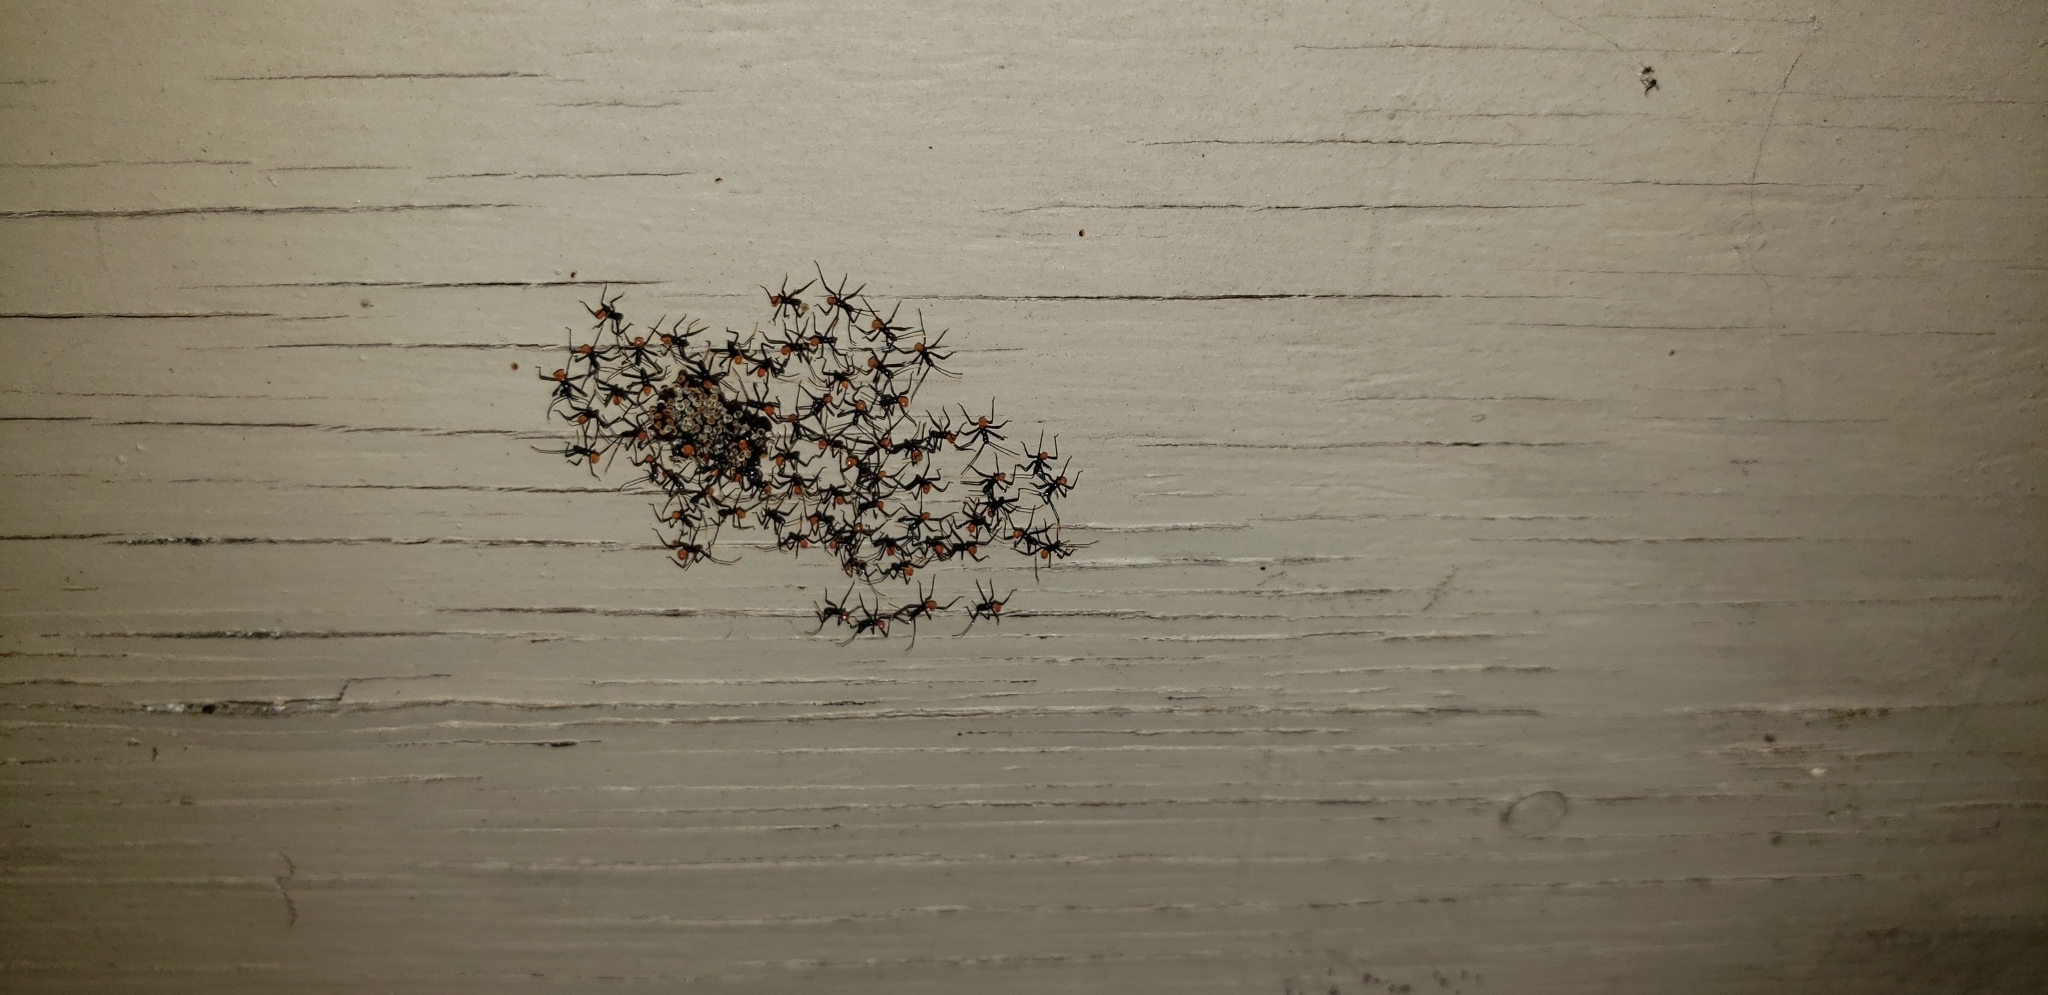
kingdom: Animalia
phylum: Arthropoda
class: Insecta
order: Hemiptera
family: Reduviidae
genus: Arilus
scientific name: Arilus cristatus
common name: North american wheel bug
